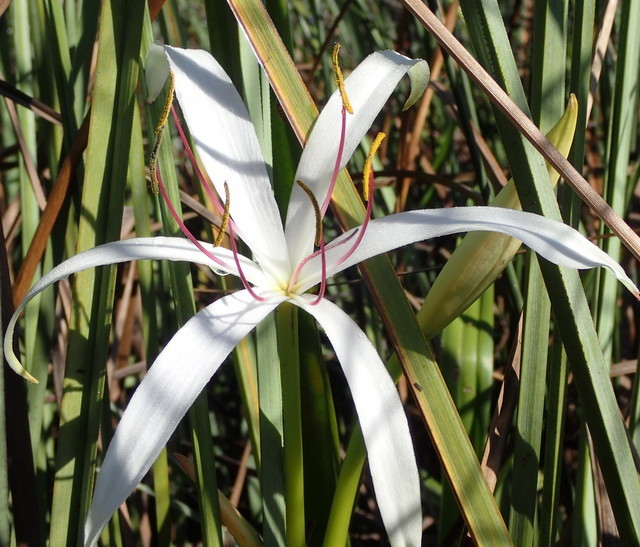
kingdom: Plantae
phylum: Tracheophyta
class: Liliopsida
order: Asparagales
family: Amaryllidaceae
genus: Crinum
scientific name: Crinum americanum
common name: Florida swamp-lily
